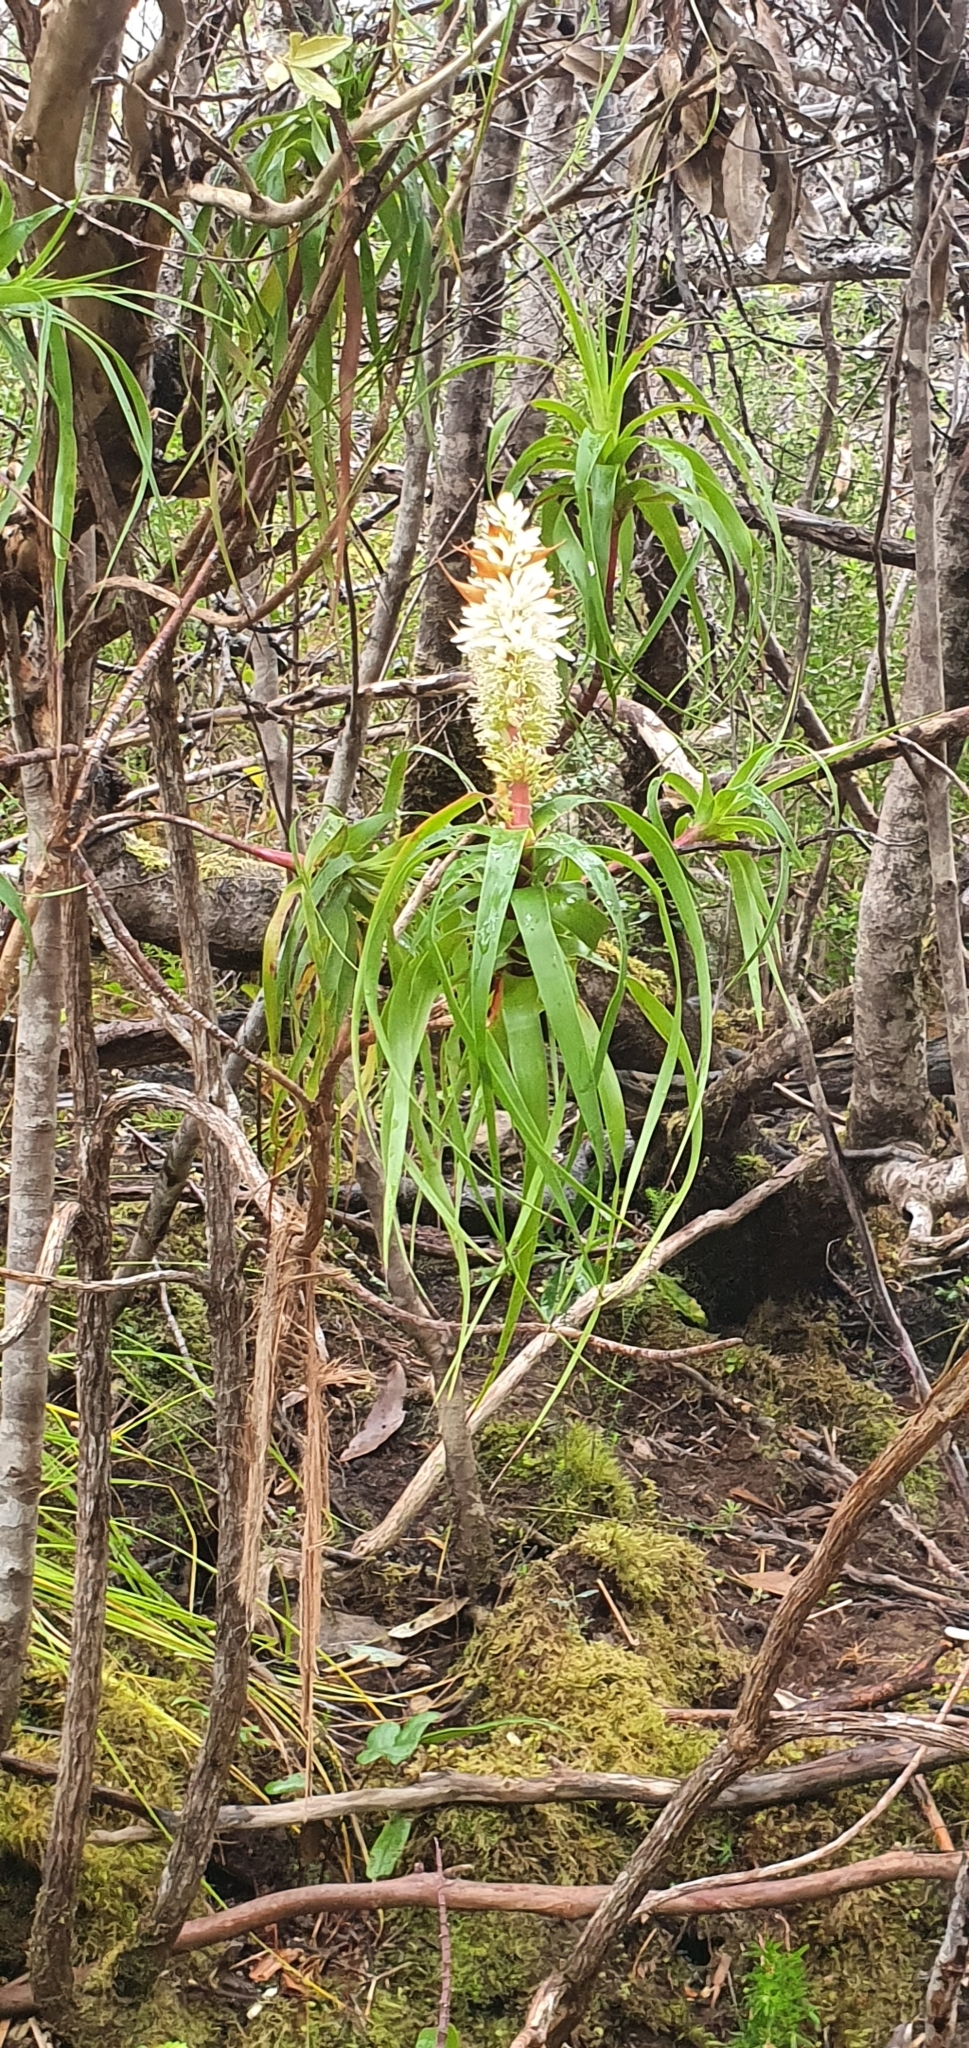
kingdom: Plantae
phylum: Tracheophyta
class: Magnoliopsida
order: Ericales
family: Ericaceae
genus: Dracophyllum
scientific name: Dracophyllum desgrazii
